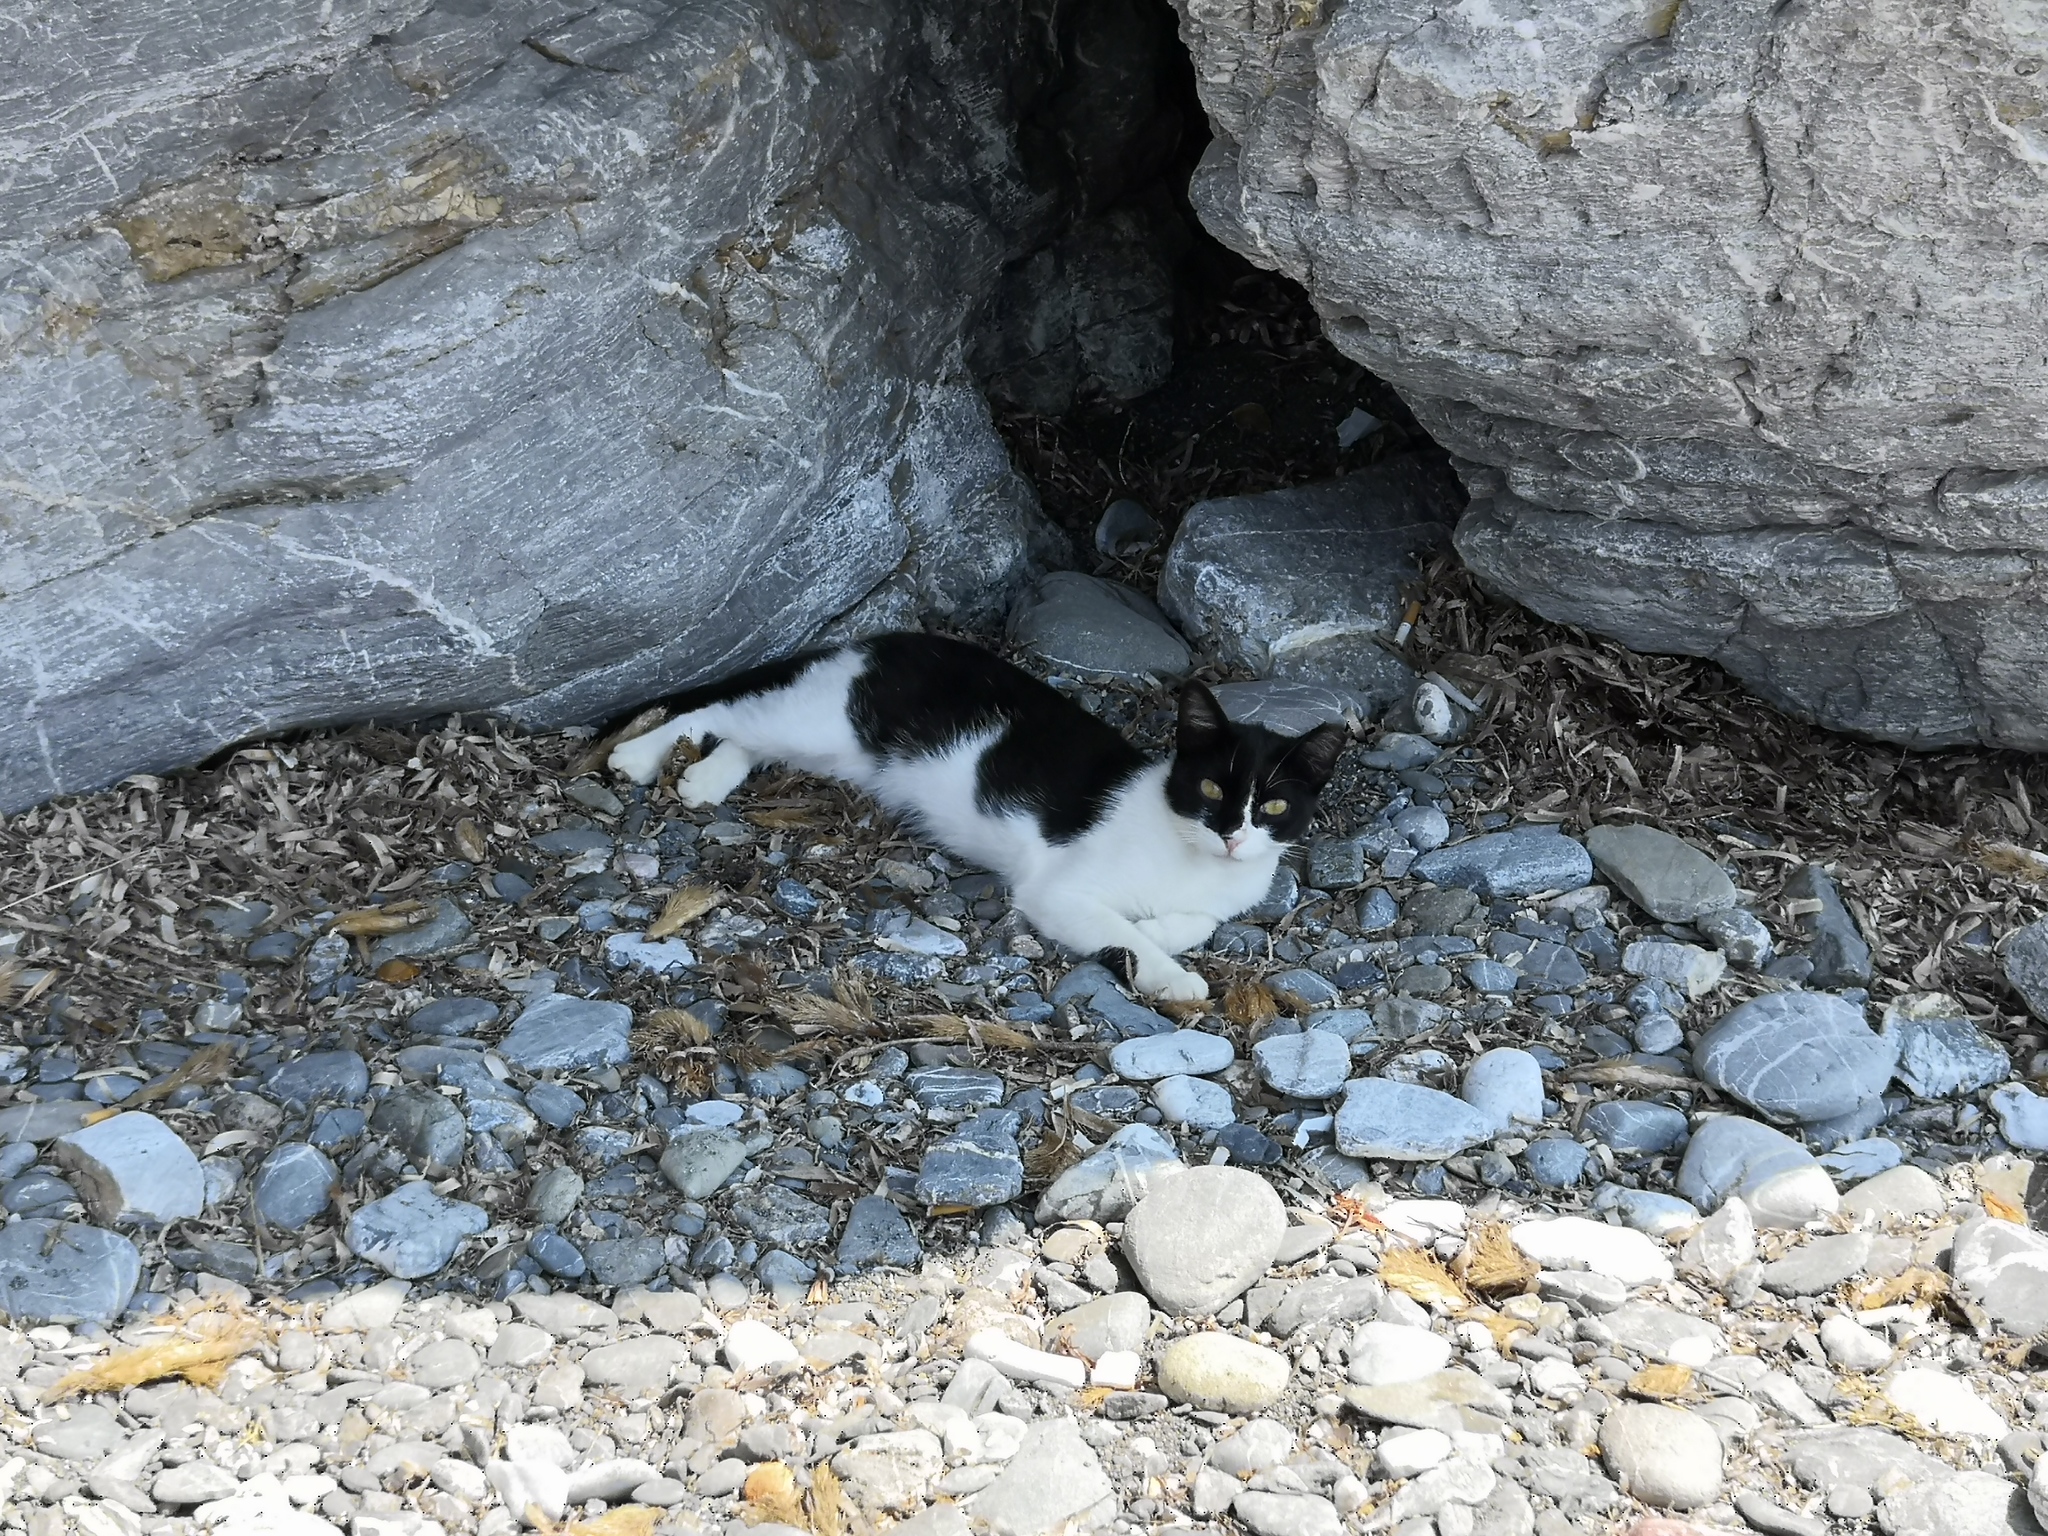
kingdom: Animalia
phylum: Chordata
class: Mammalia
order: Carnivora
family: Felidae
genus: Felis
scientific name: Felis catus
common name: Domestic cat
